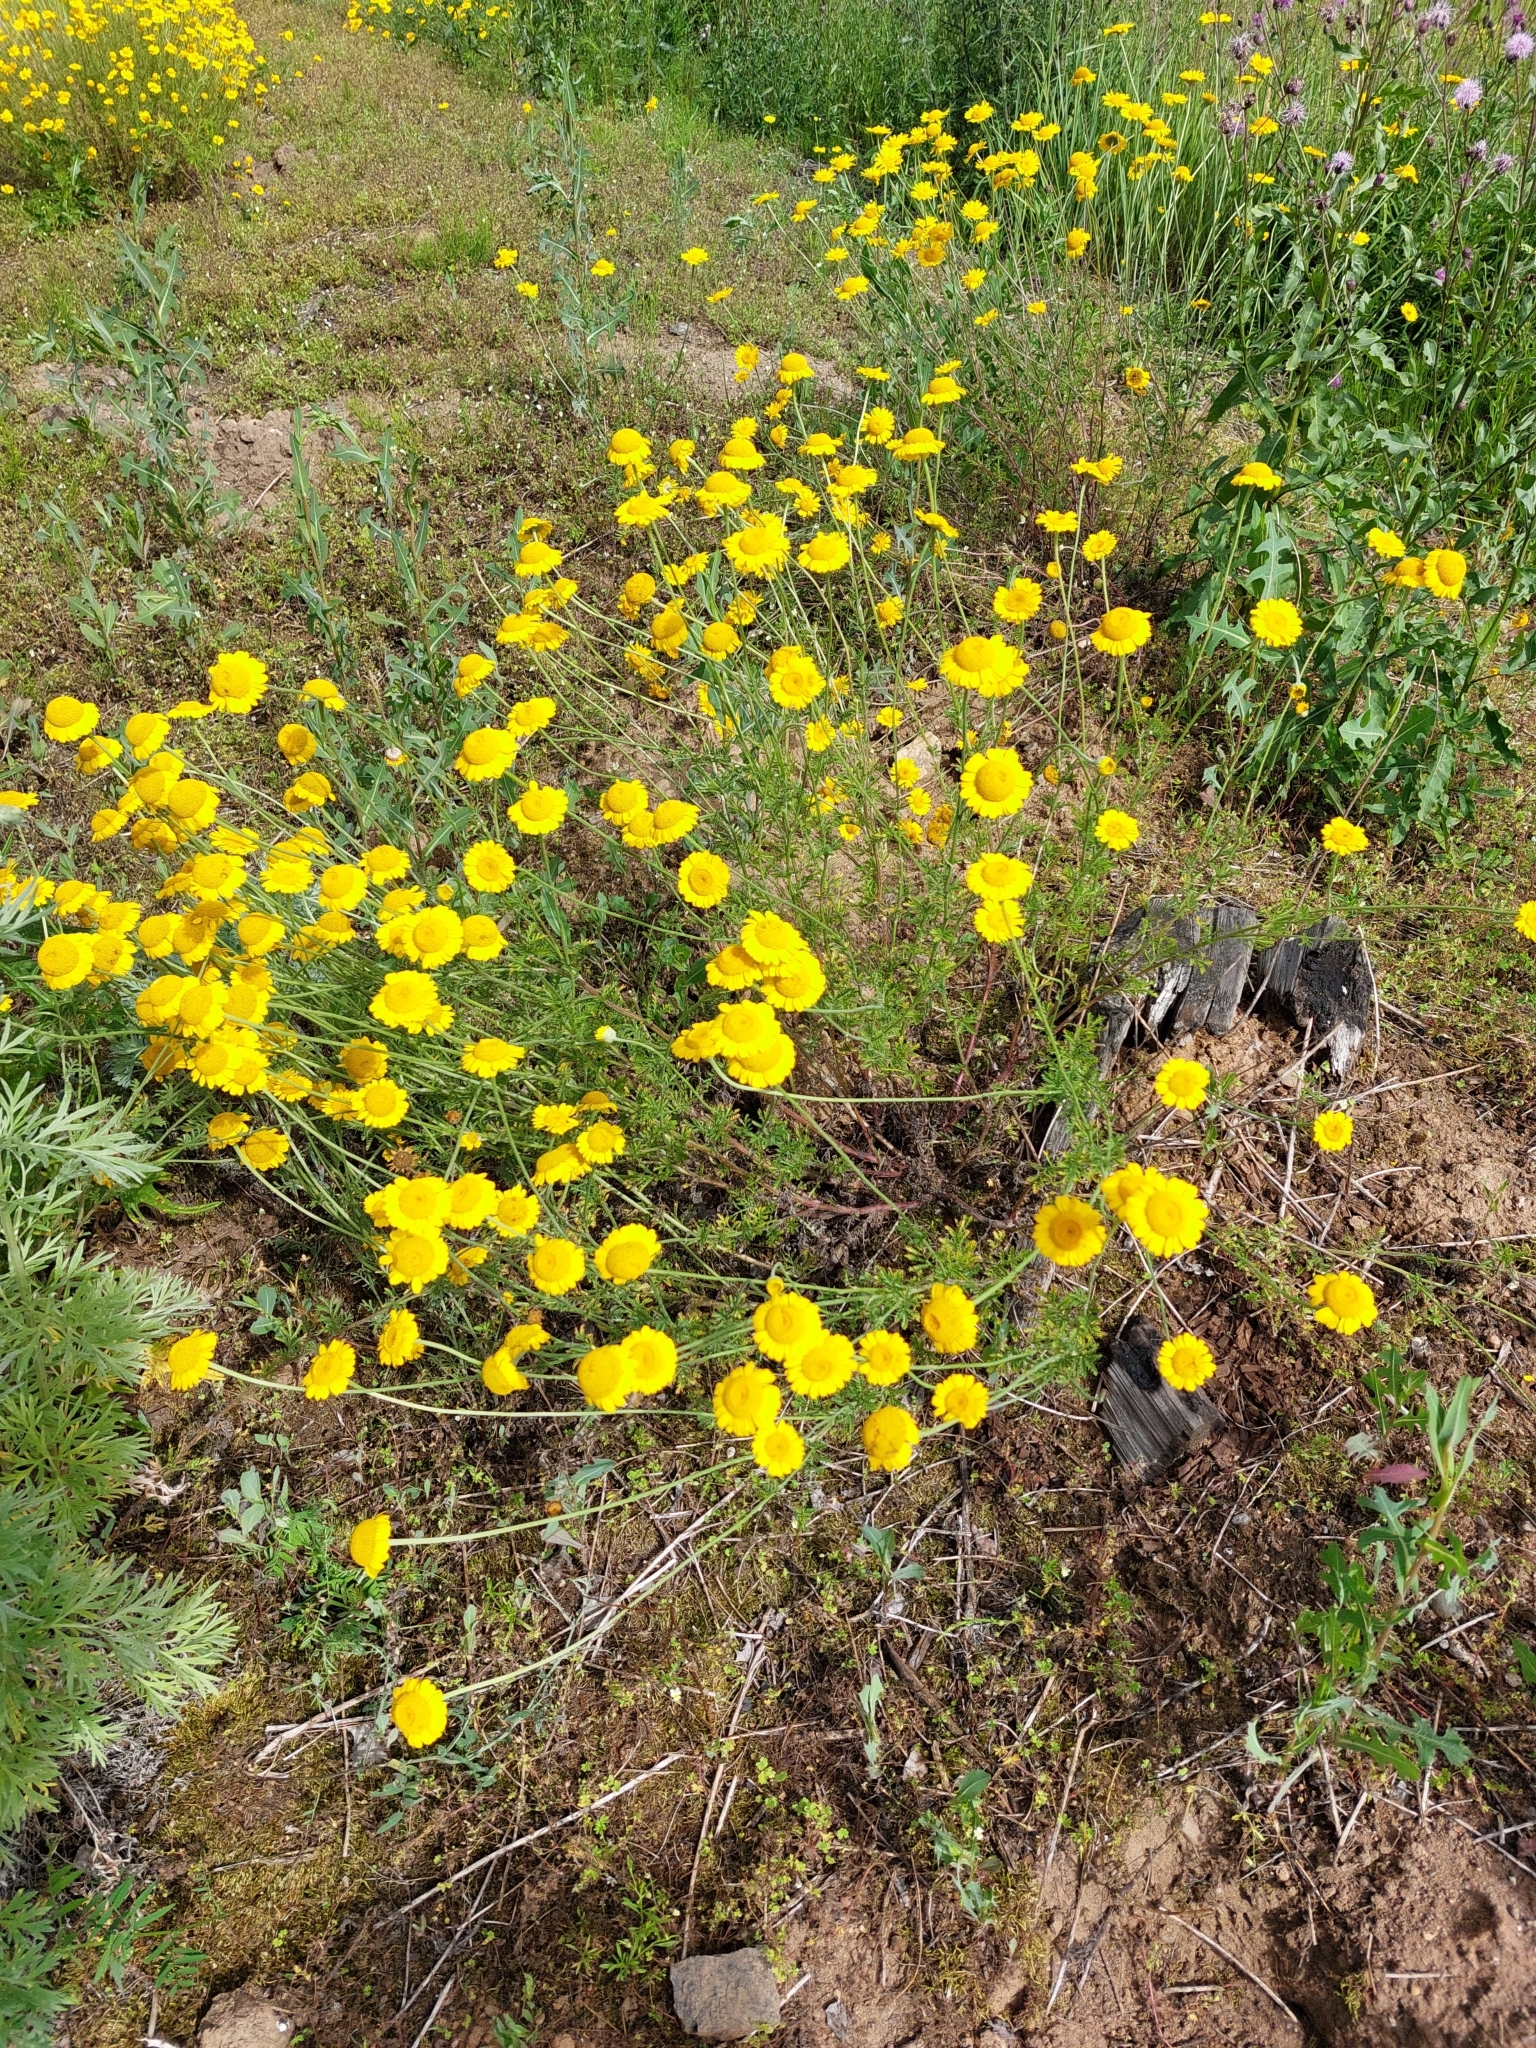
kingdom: Plantae
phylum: Tracheophyta
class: Magnoliopsida
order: Asterales
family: Asteraceae
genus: Cota
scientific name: Cota tinctoria
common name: Golden chamomile
